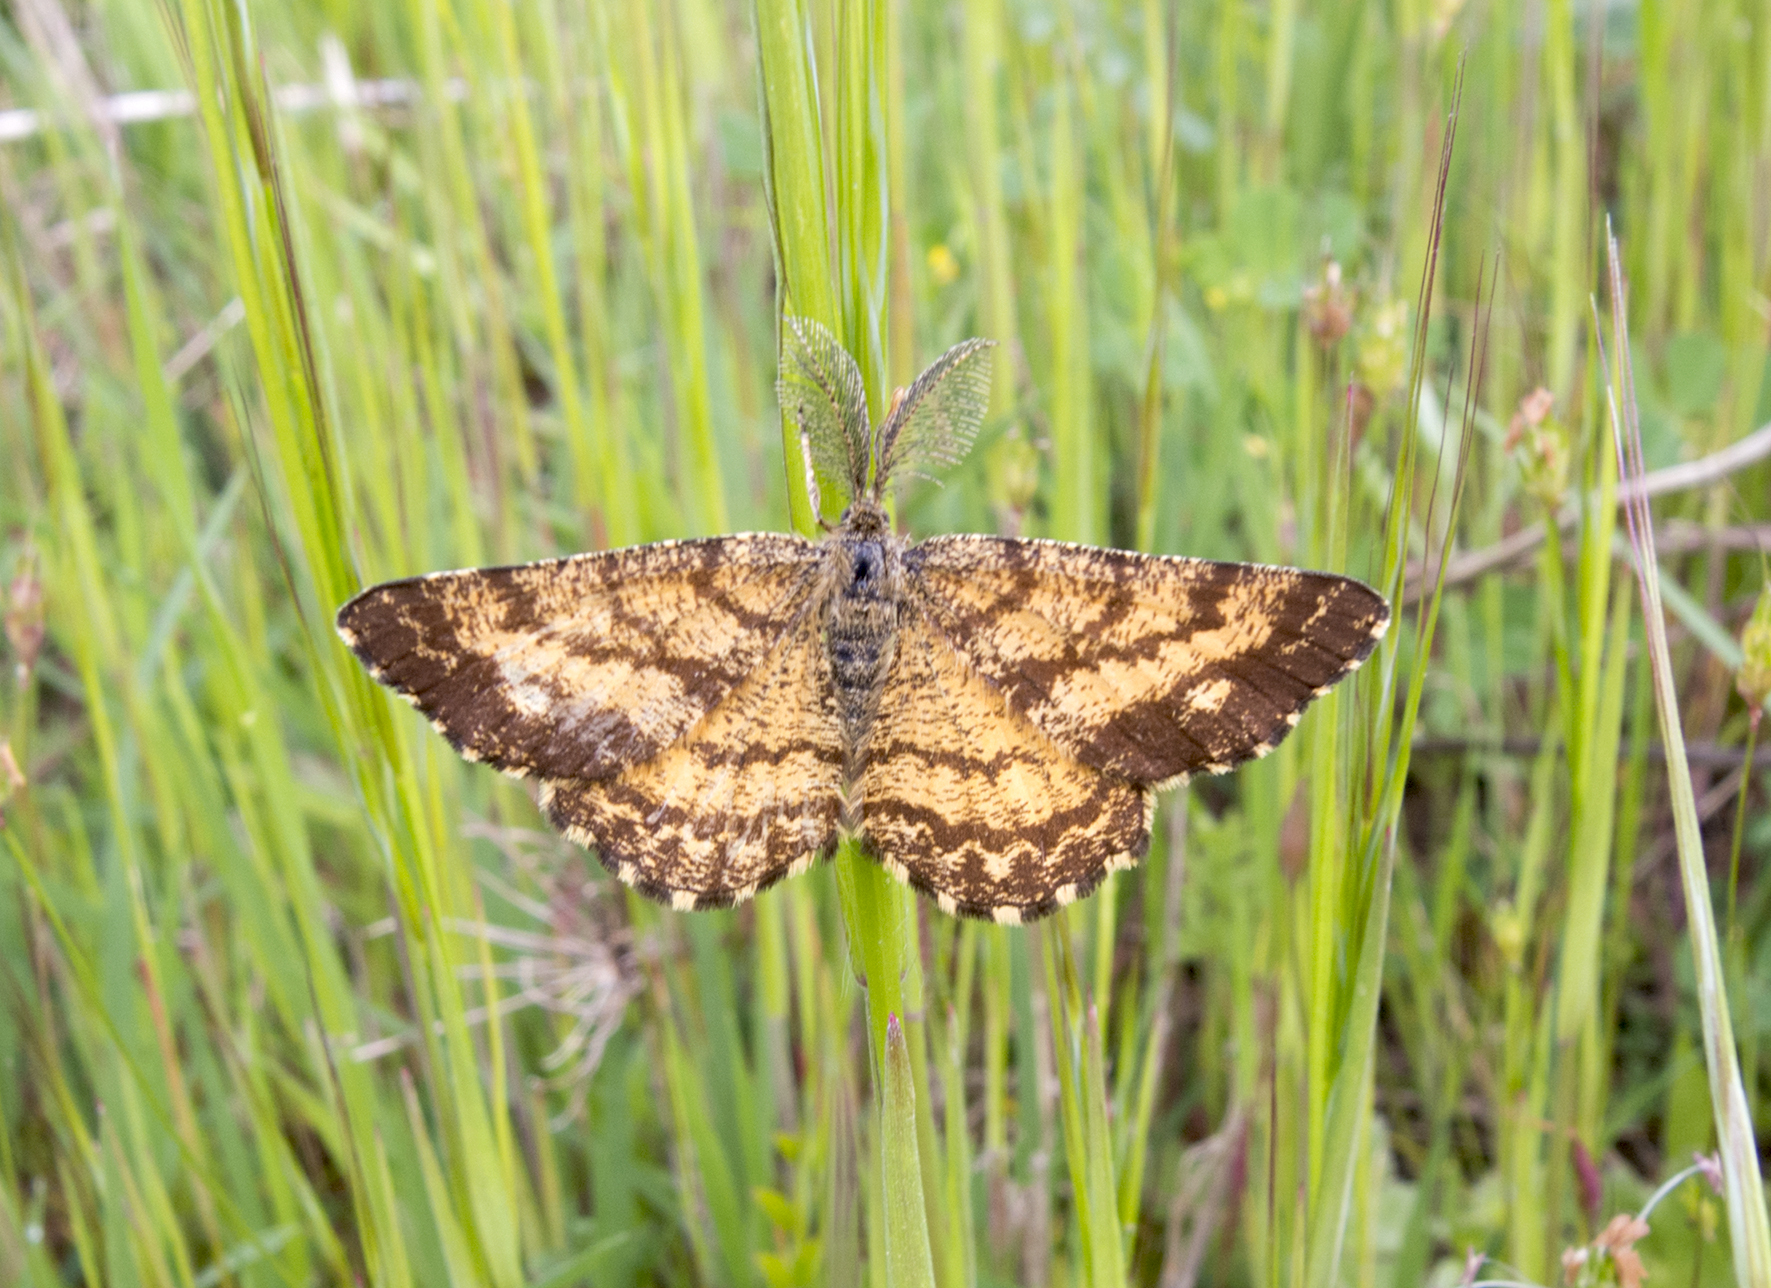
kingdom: Animalia
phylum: Arthropoda
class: Insecta
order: Lepidoptera
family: Geometridae
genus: Ematurga
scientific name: Ematurga atomaria
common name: Common heath
